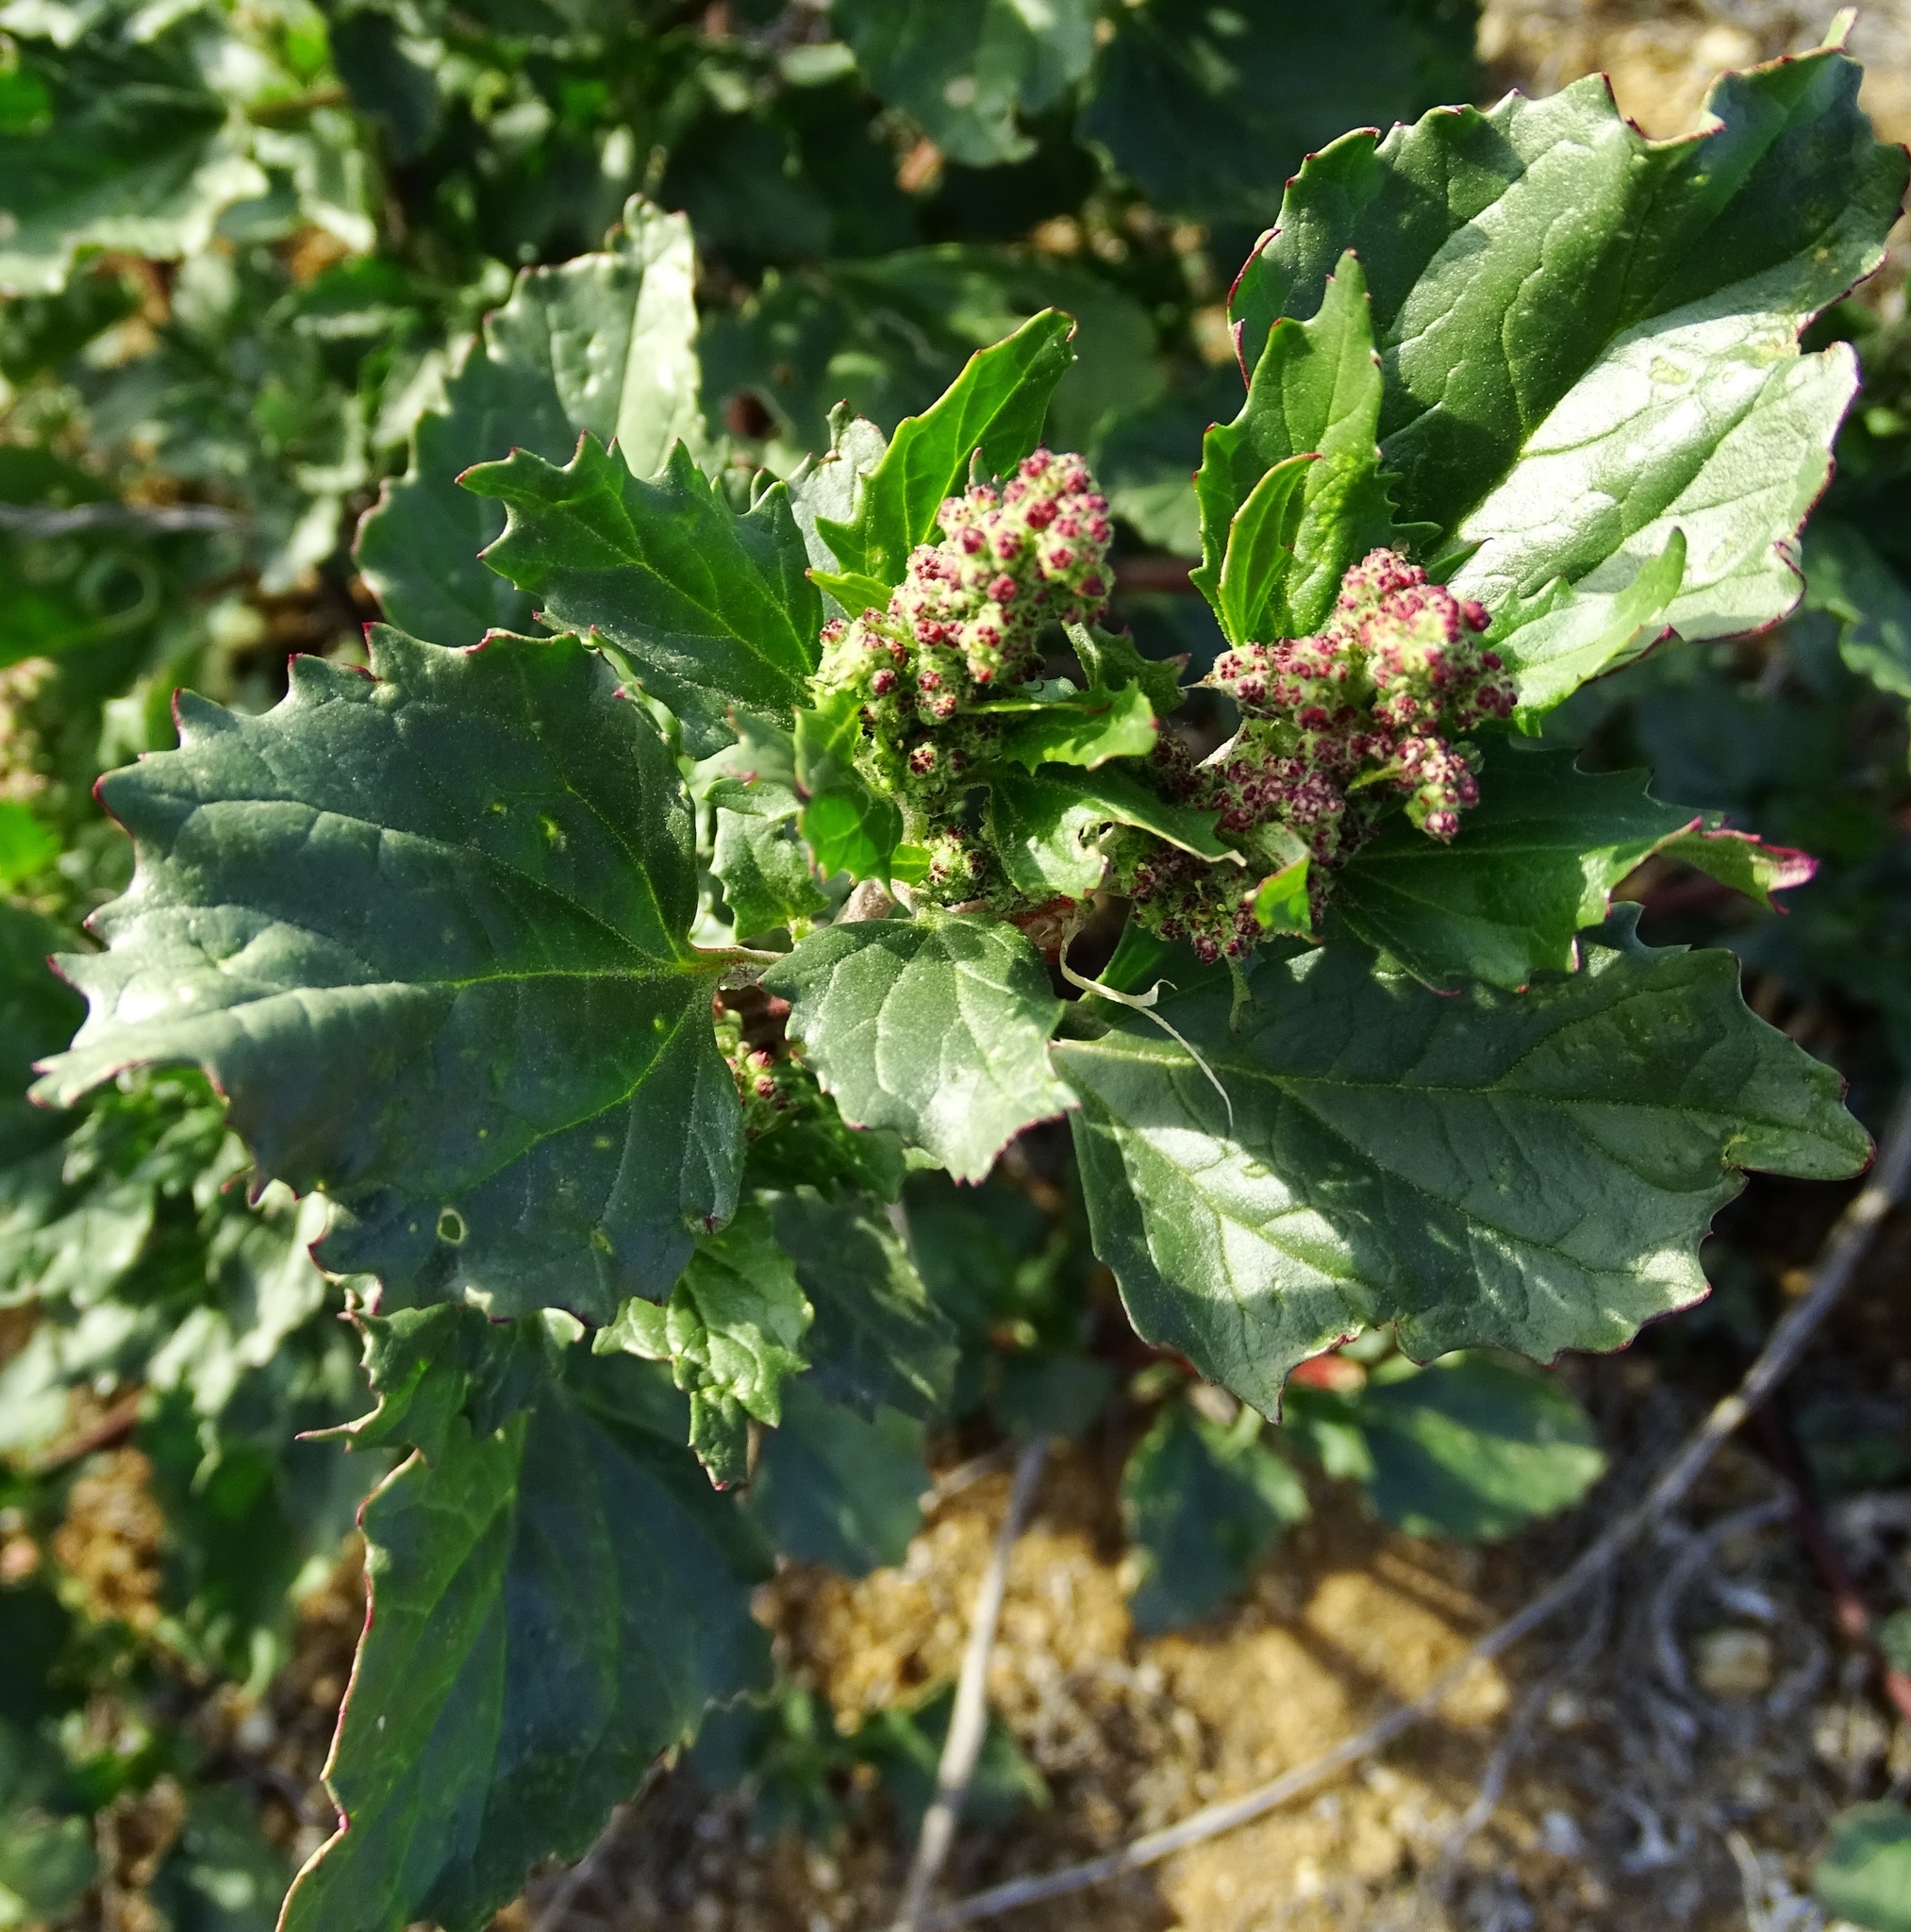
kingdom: Plantae
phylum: Tracheophyta
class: Magnoliopsida
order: Caryophyllales
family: Amaranthaceae
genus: Chenopodiastrum
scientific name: Chenopodiastrum murale
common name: Sowbane
